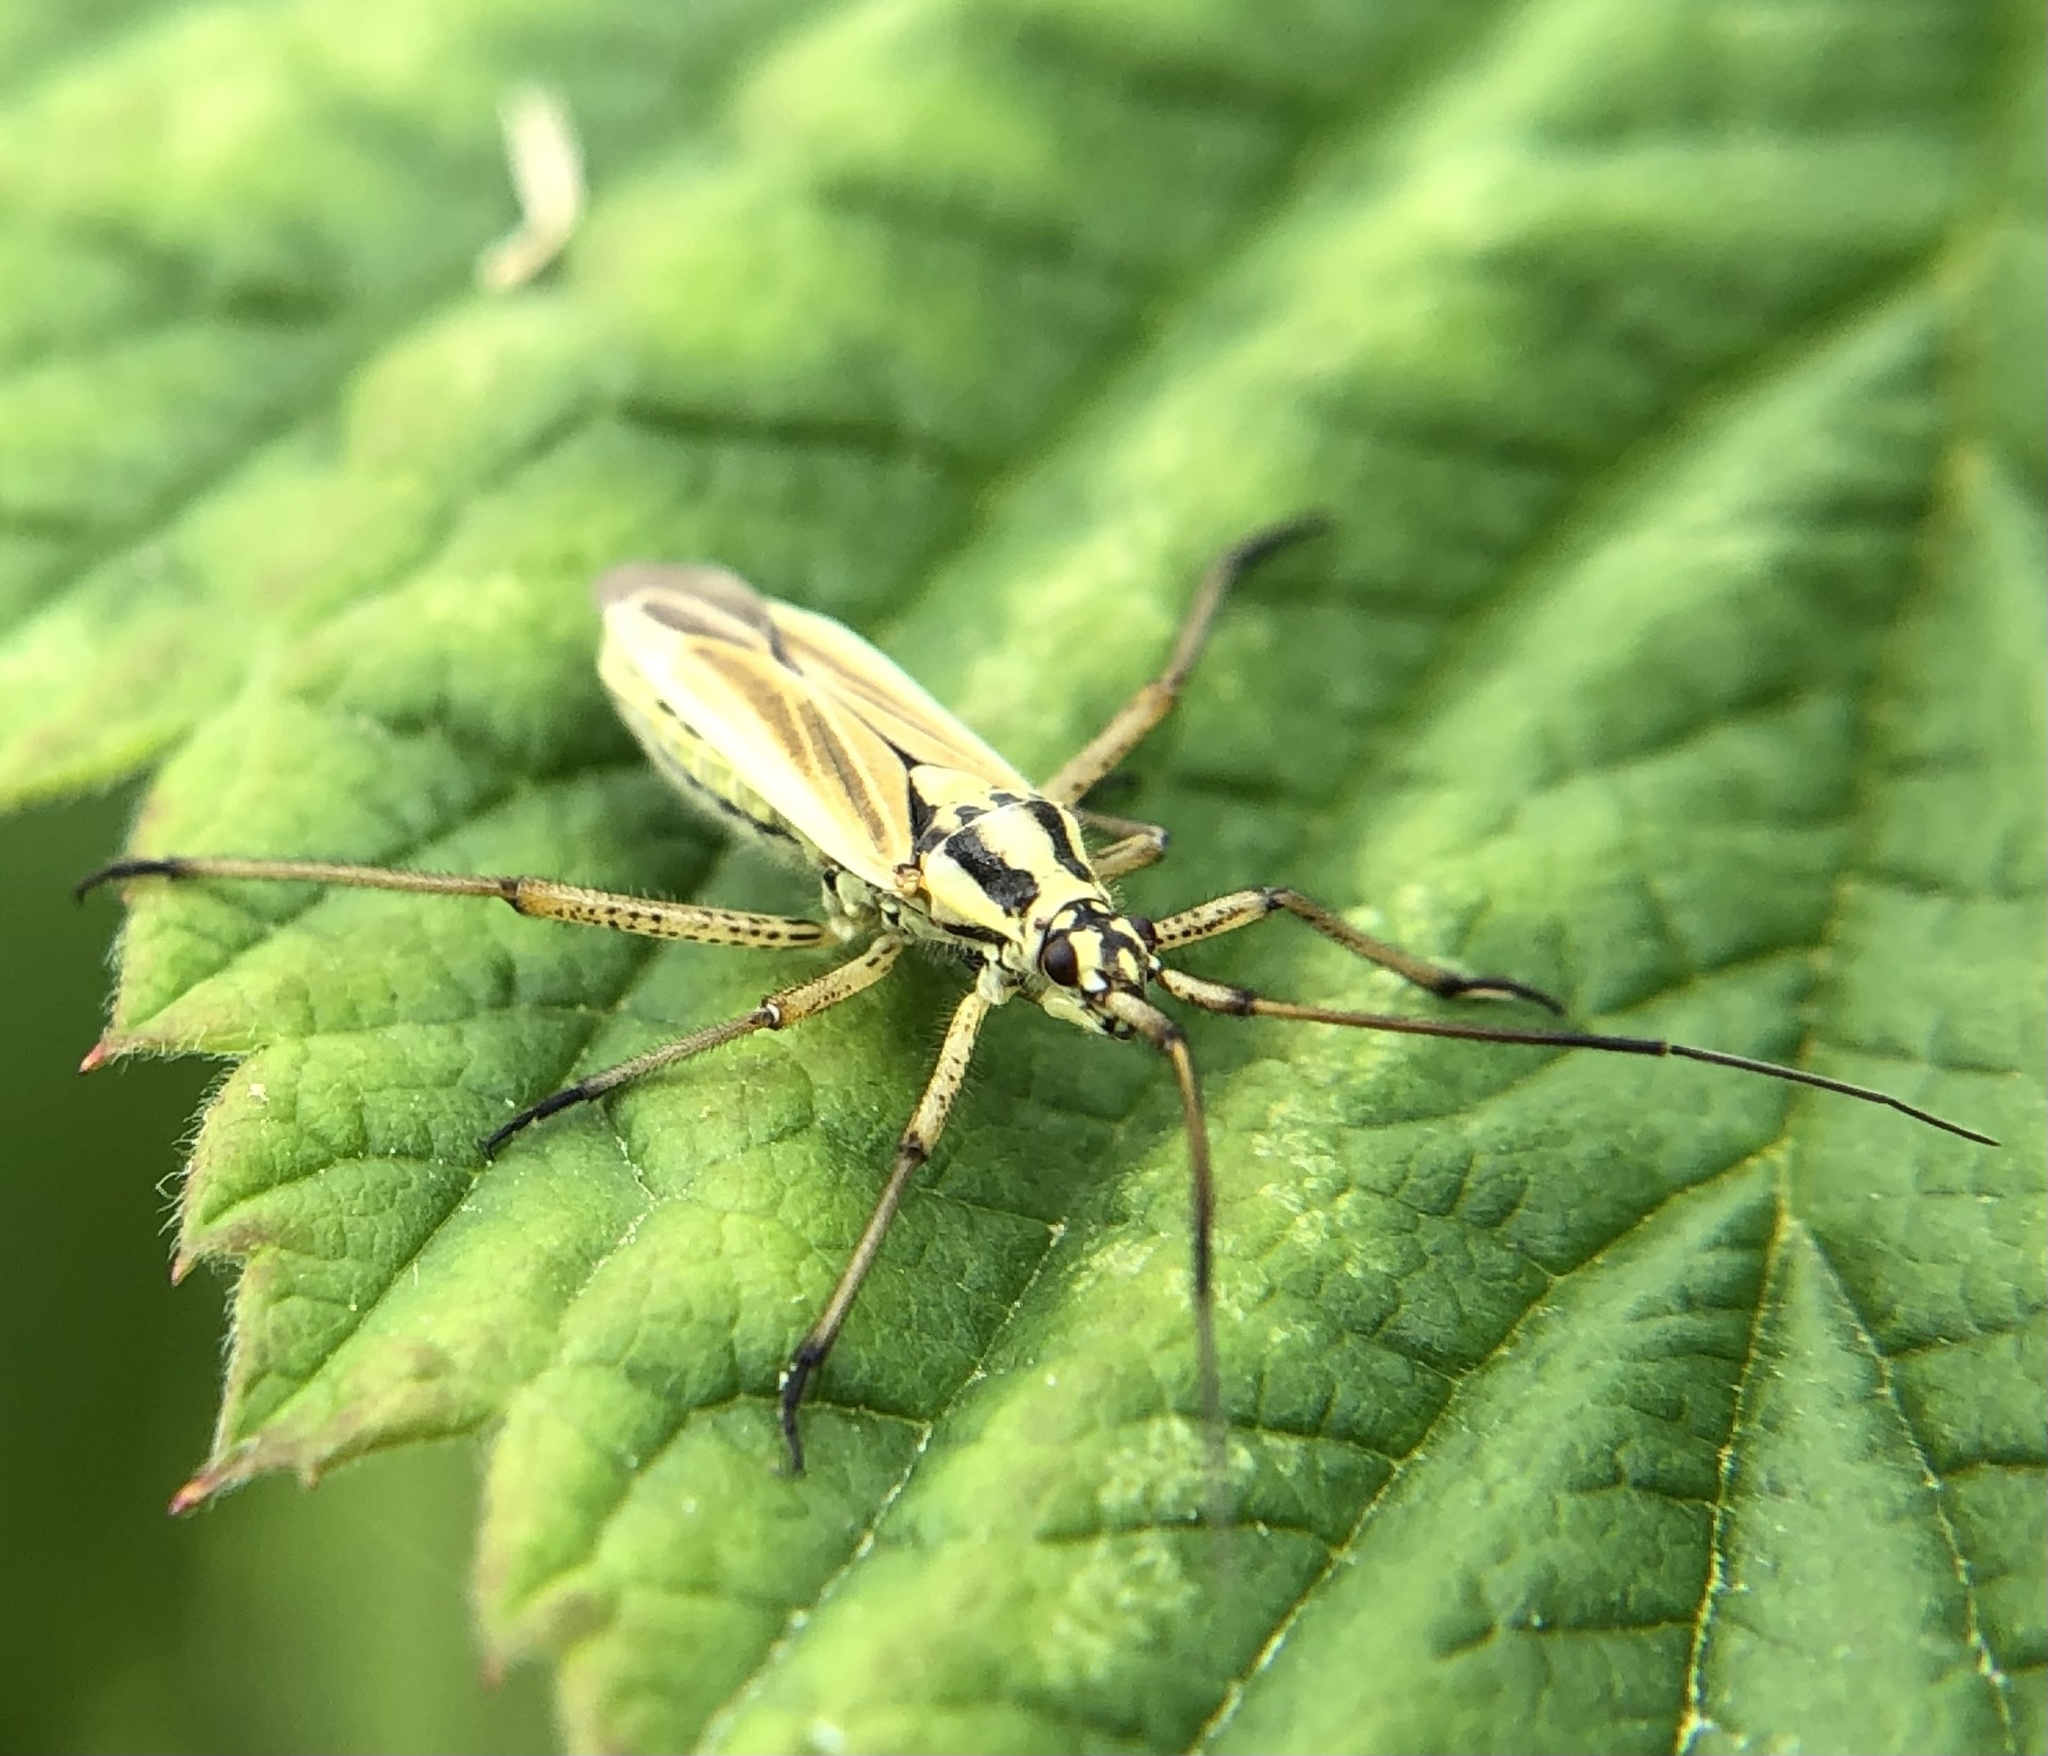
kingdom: Animalia
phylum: Arthropoda
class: Insecta
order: Hemiptera
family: Miridae
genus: Leptopterna
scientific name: Leptopterna dolabrata
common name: Meadow plant bug
